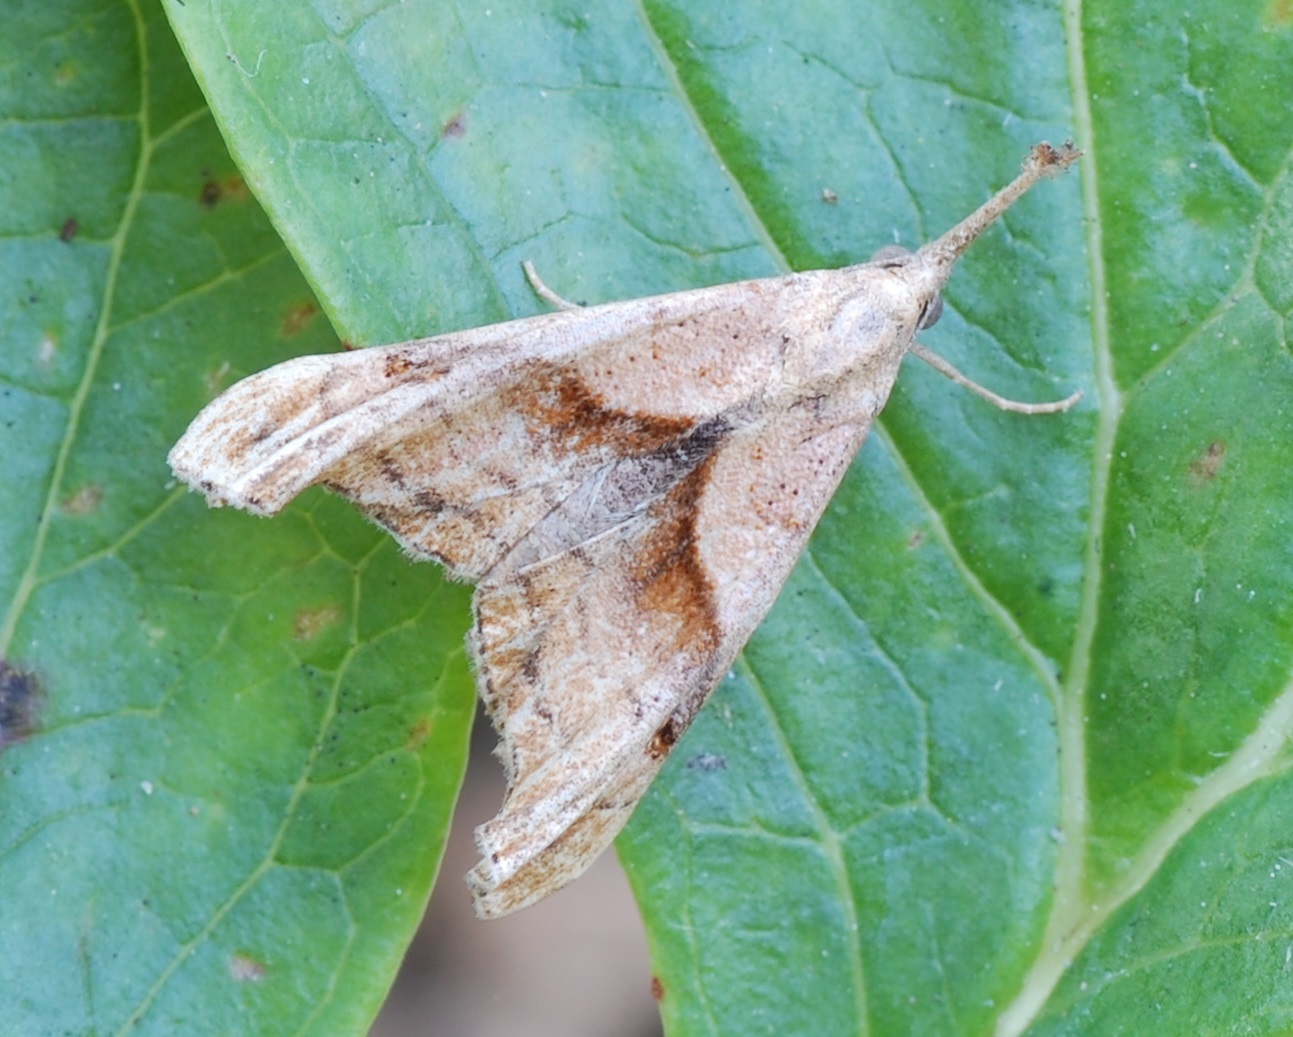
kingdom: Animalia
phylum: Arthropoda
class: Insecta
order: Lepidoptera
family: Erebidae
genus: Palthis
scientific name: Palthis angulalis
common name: Dark-spotted palthis moth
